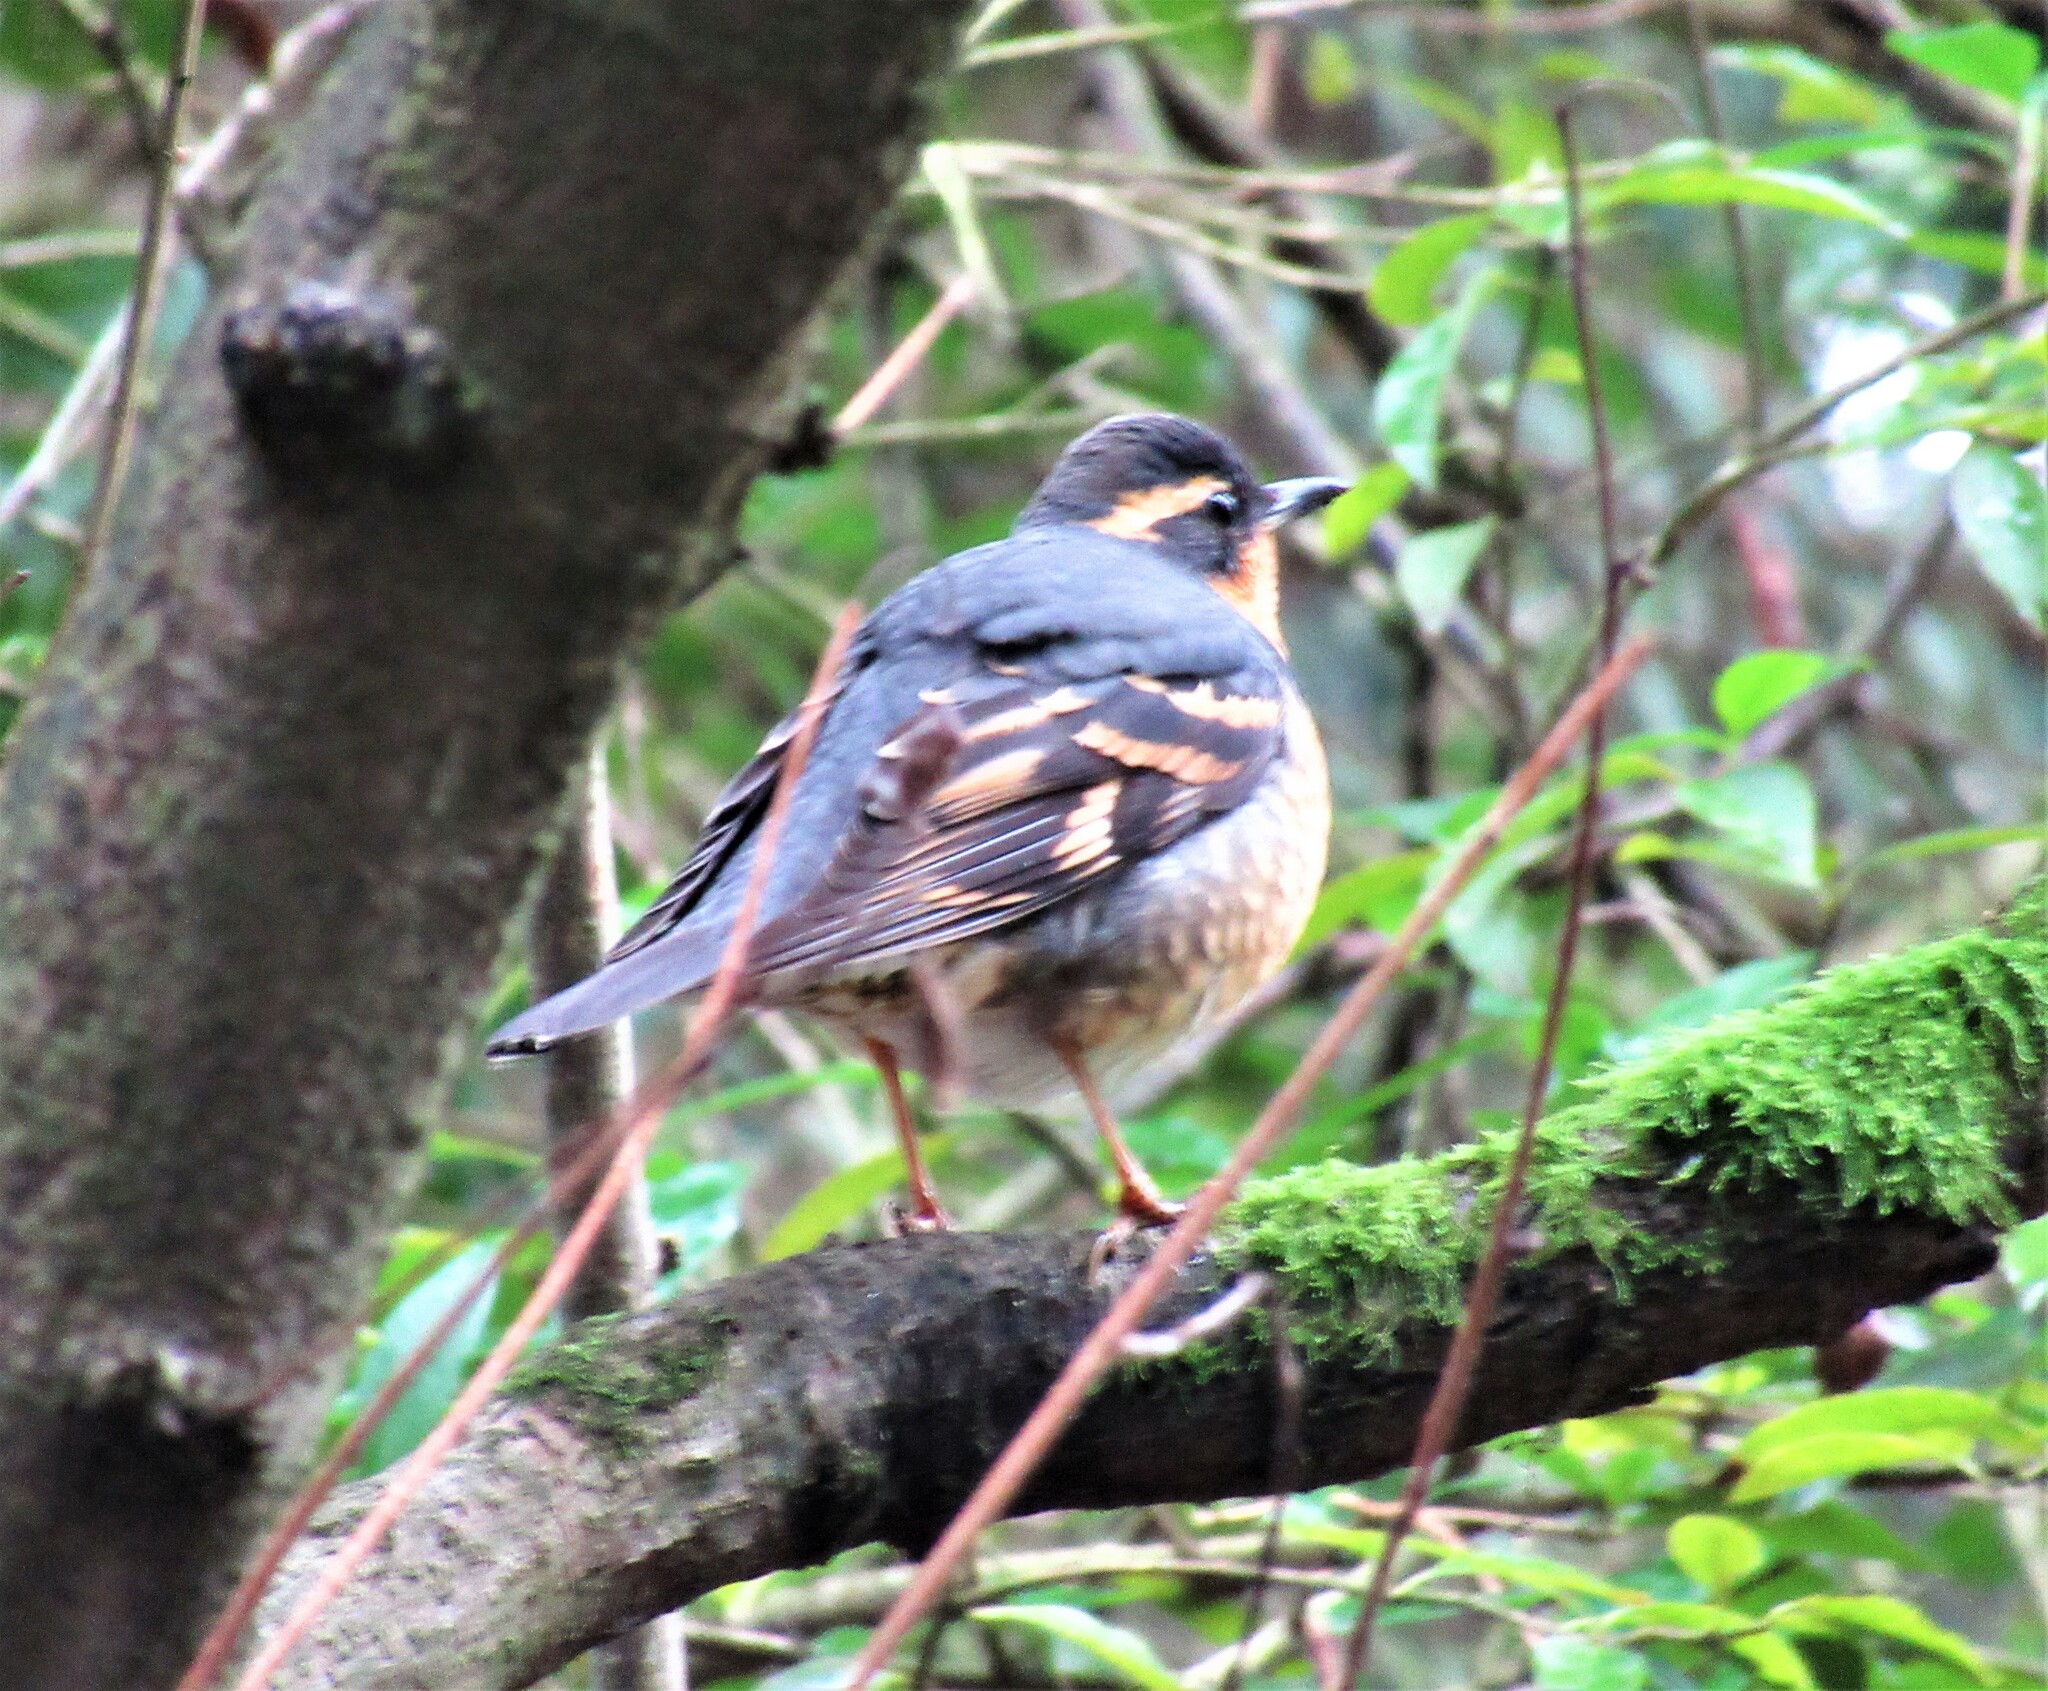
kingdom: Animalia
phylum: Chordata
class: Aves
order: Passeriformes
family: Turdidae
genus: Ixoreus
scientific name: Ixoreus naevius
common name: Varied thrush
